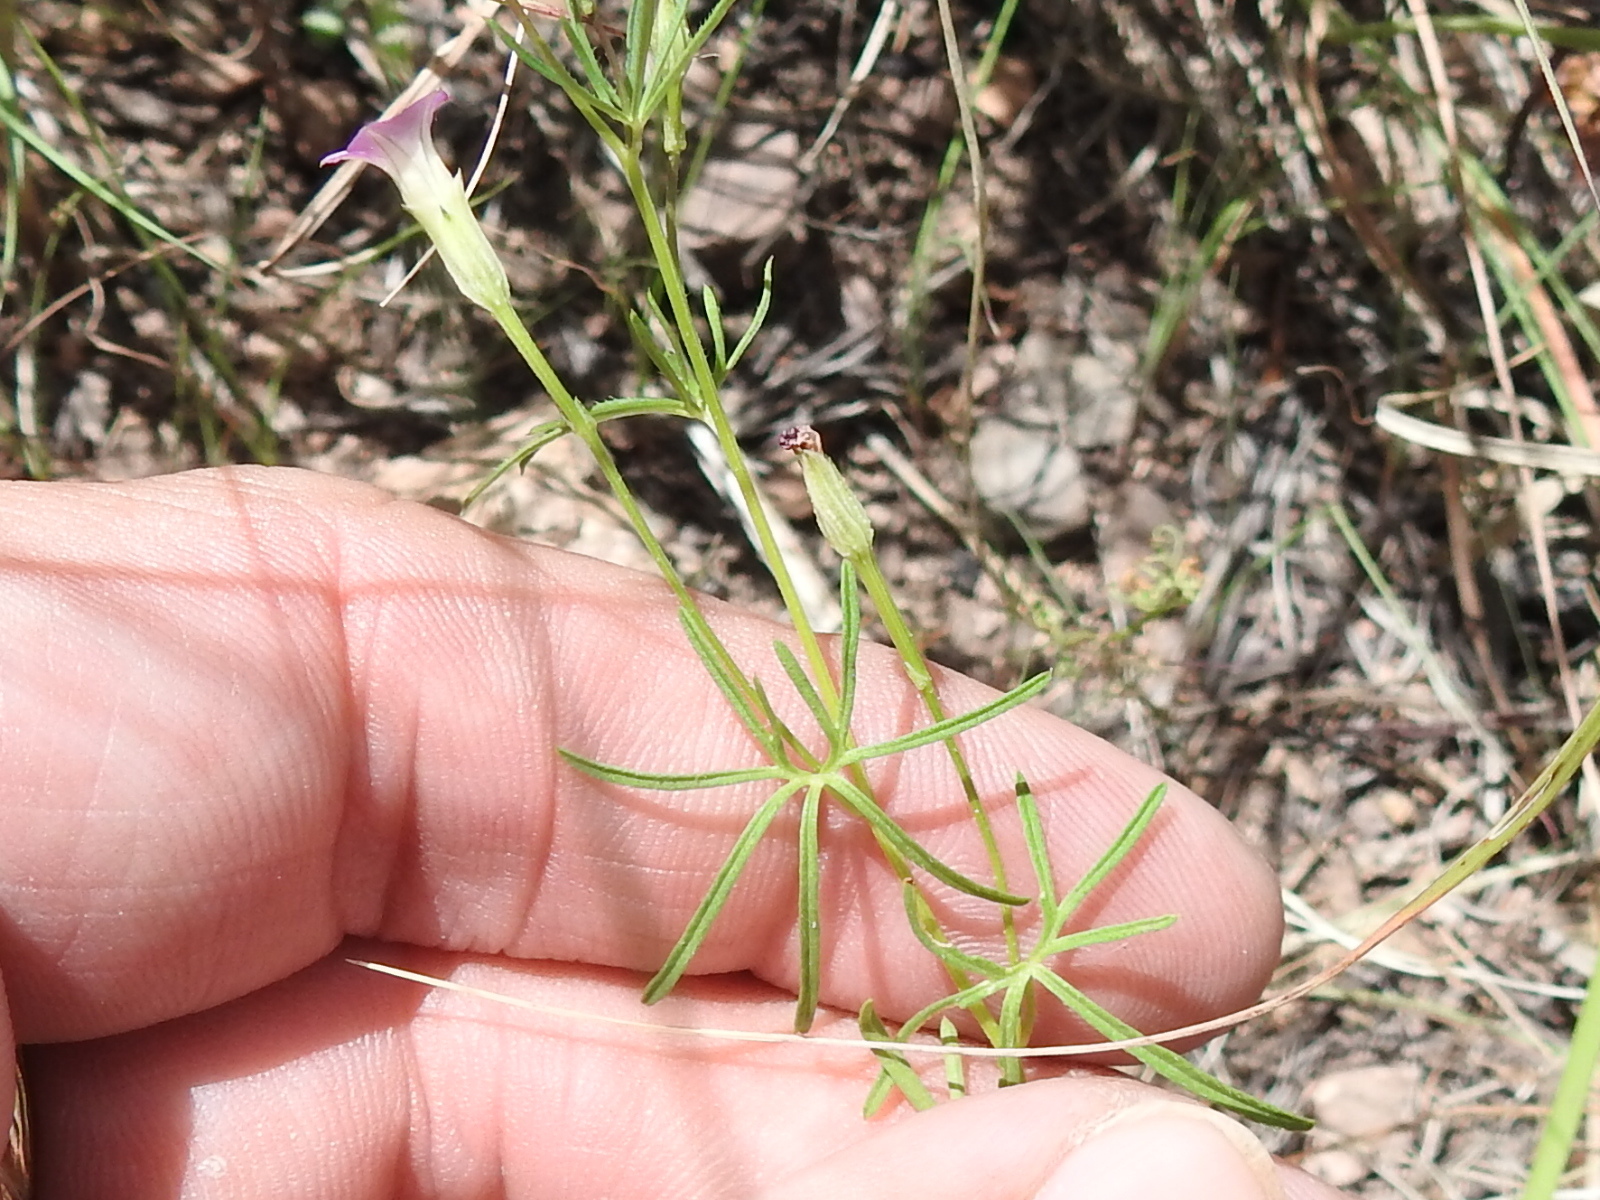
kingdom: Plantae
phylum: Tracheophyta
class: Magnoliopsida
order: Solanales
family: Convolvulaceae
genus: Ipomoea
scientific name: Ipomoea costellata
